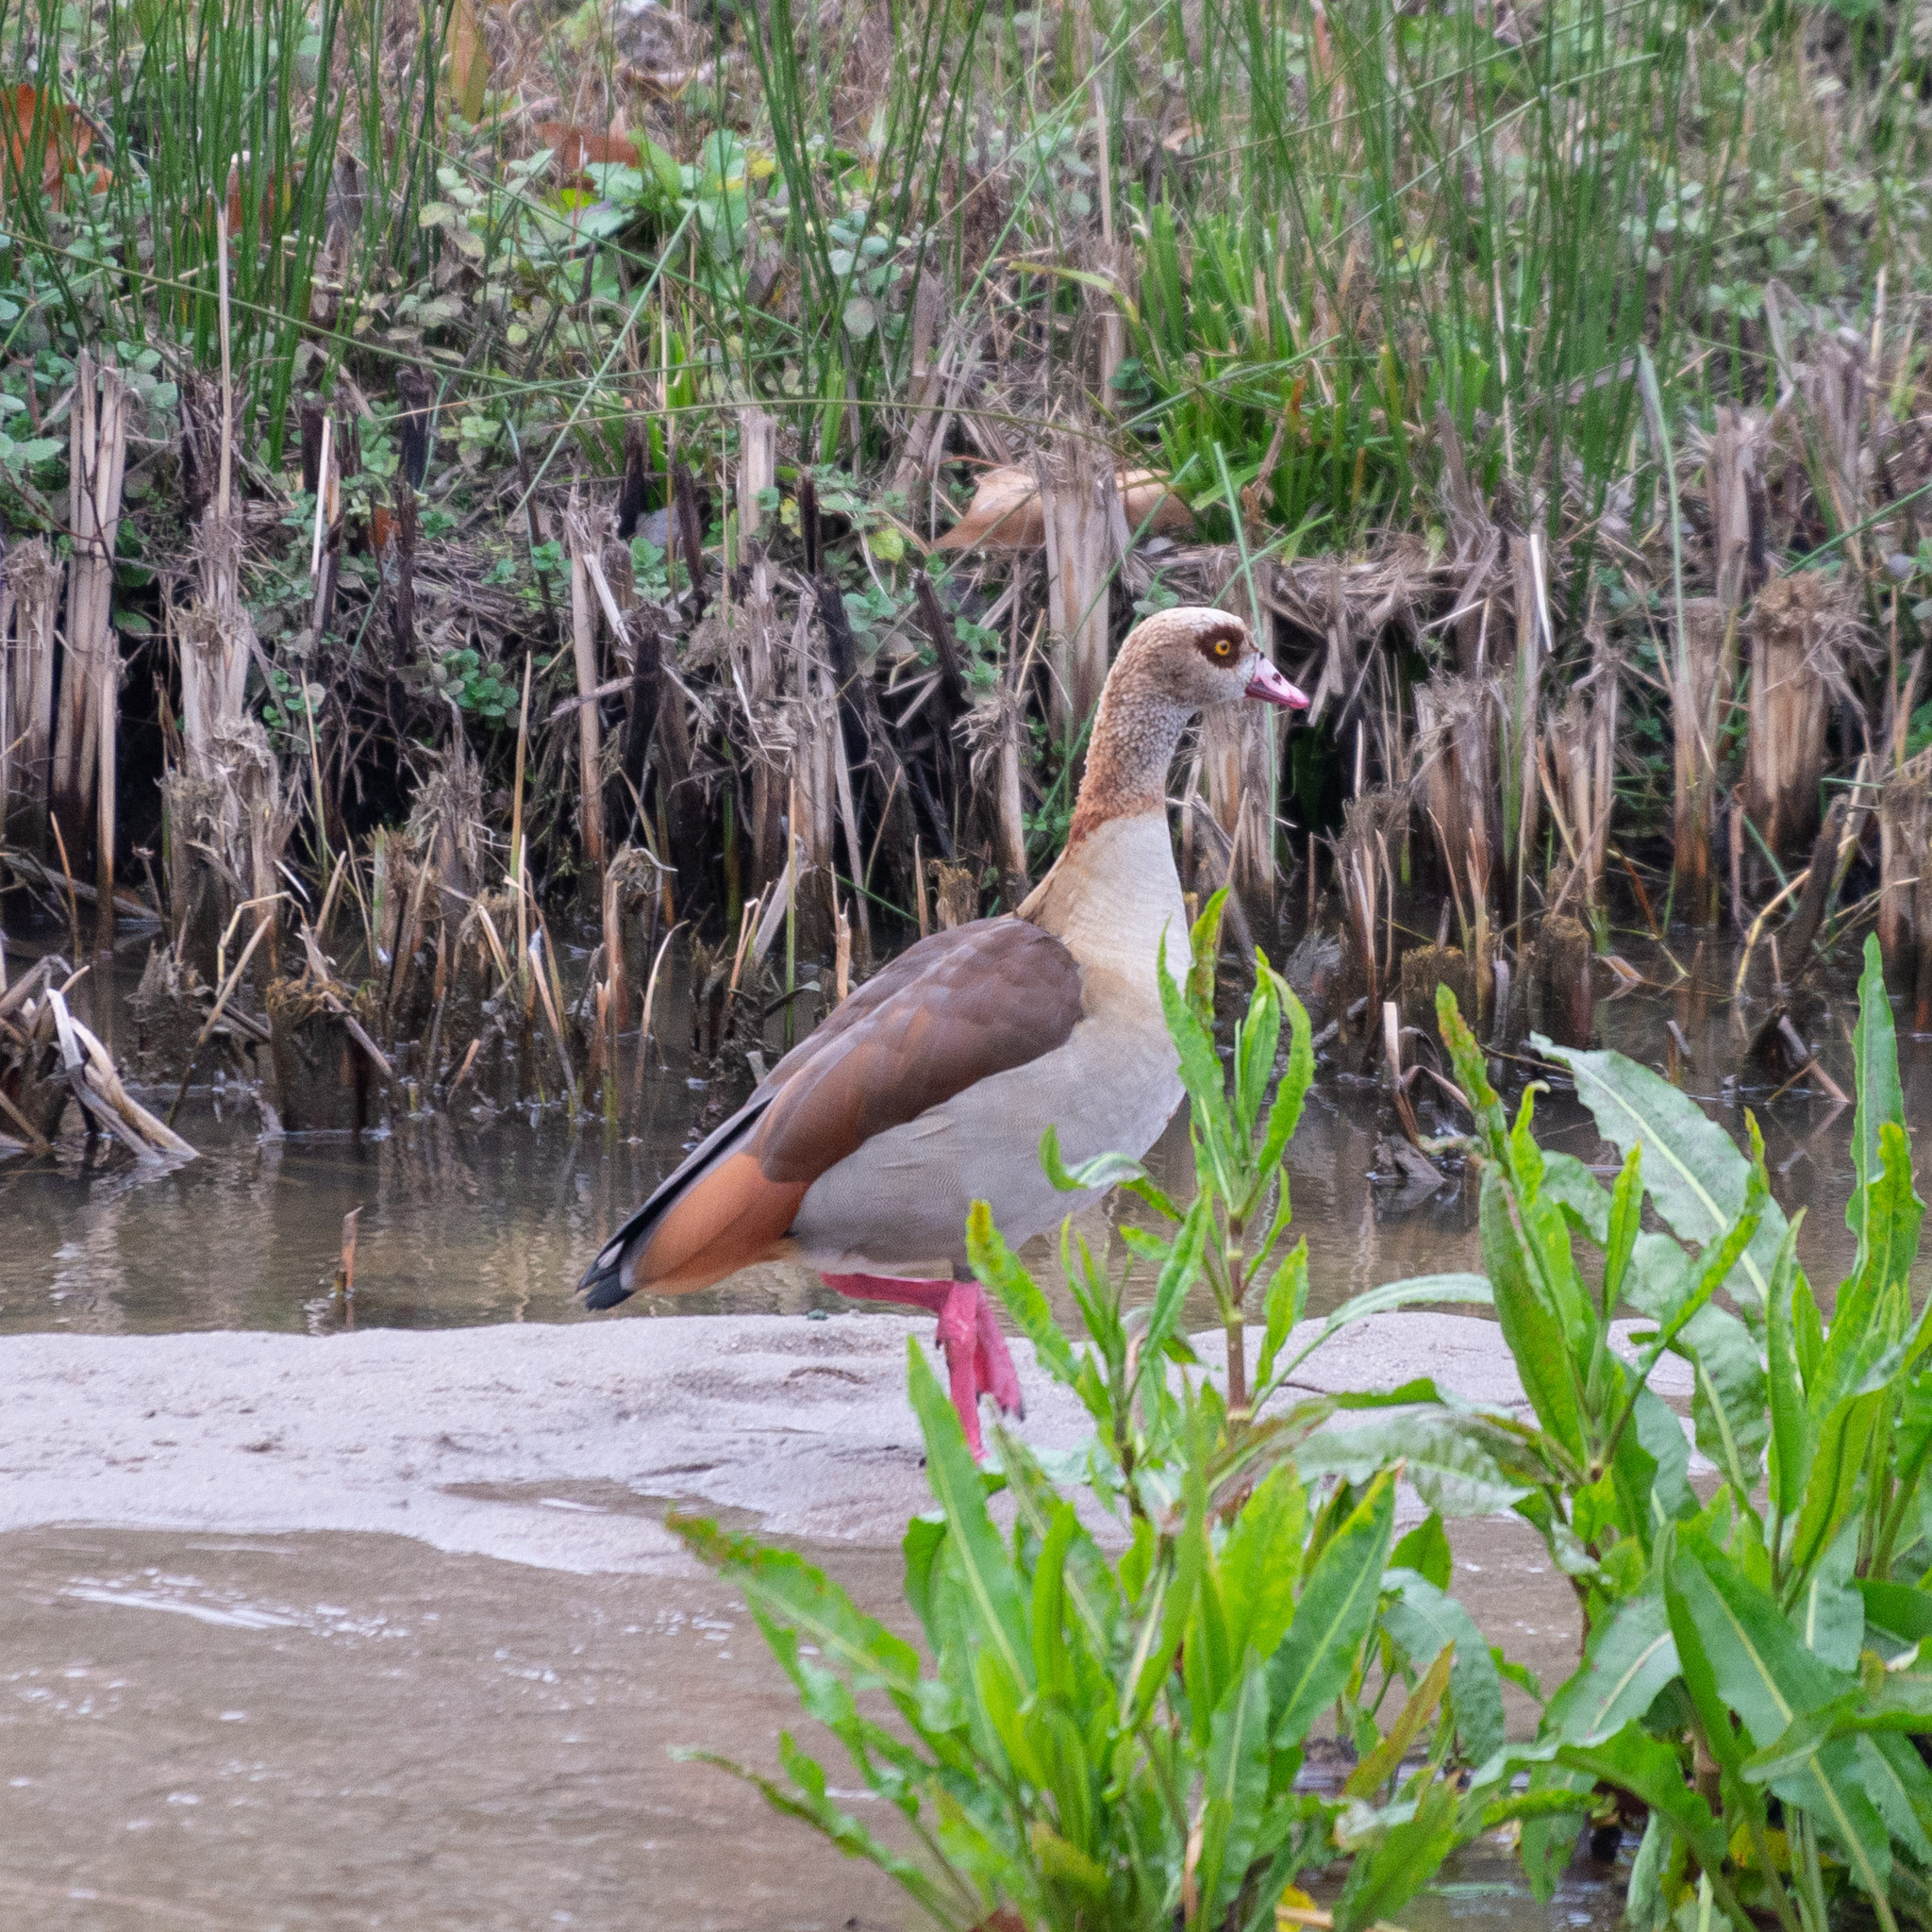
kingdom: Animalia
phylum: Chordata
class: Aves
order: Anseriformes
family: Anatidae
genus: Alopochen
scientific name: Alopochen aegyptiaca
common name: Egyptian goose
